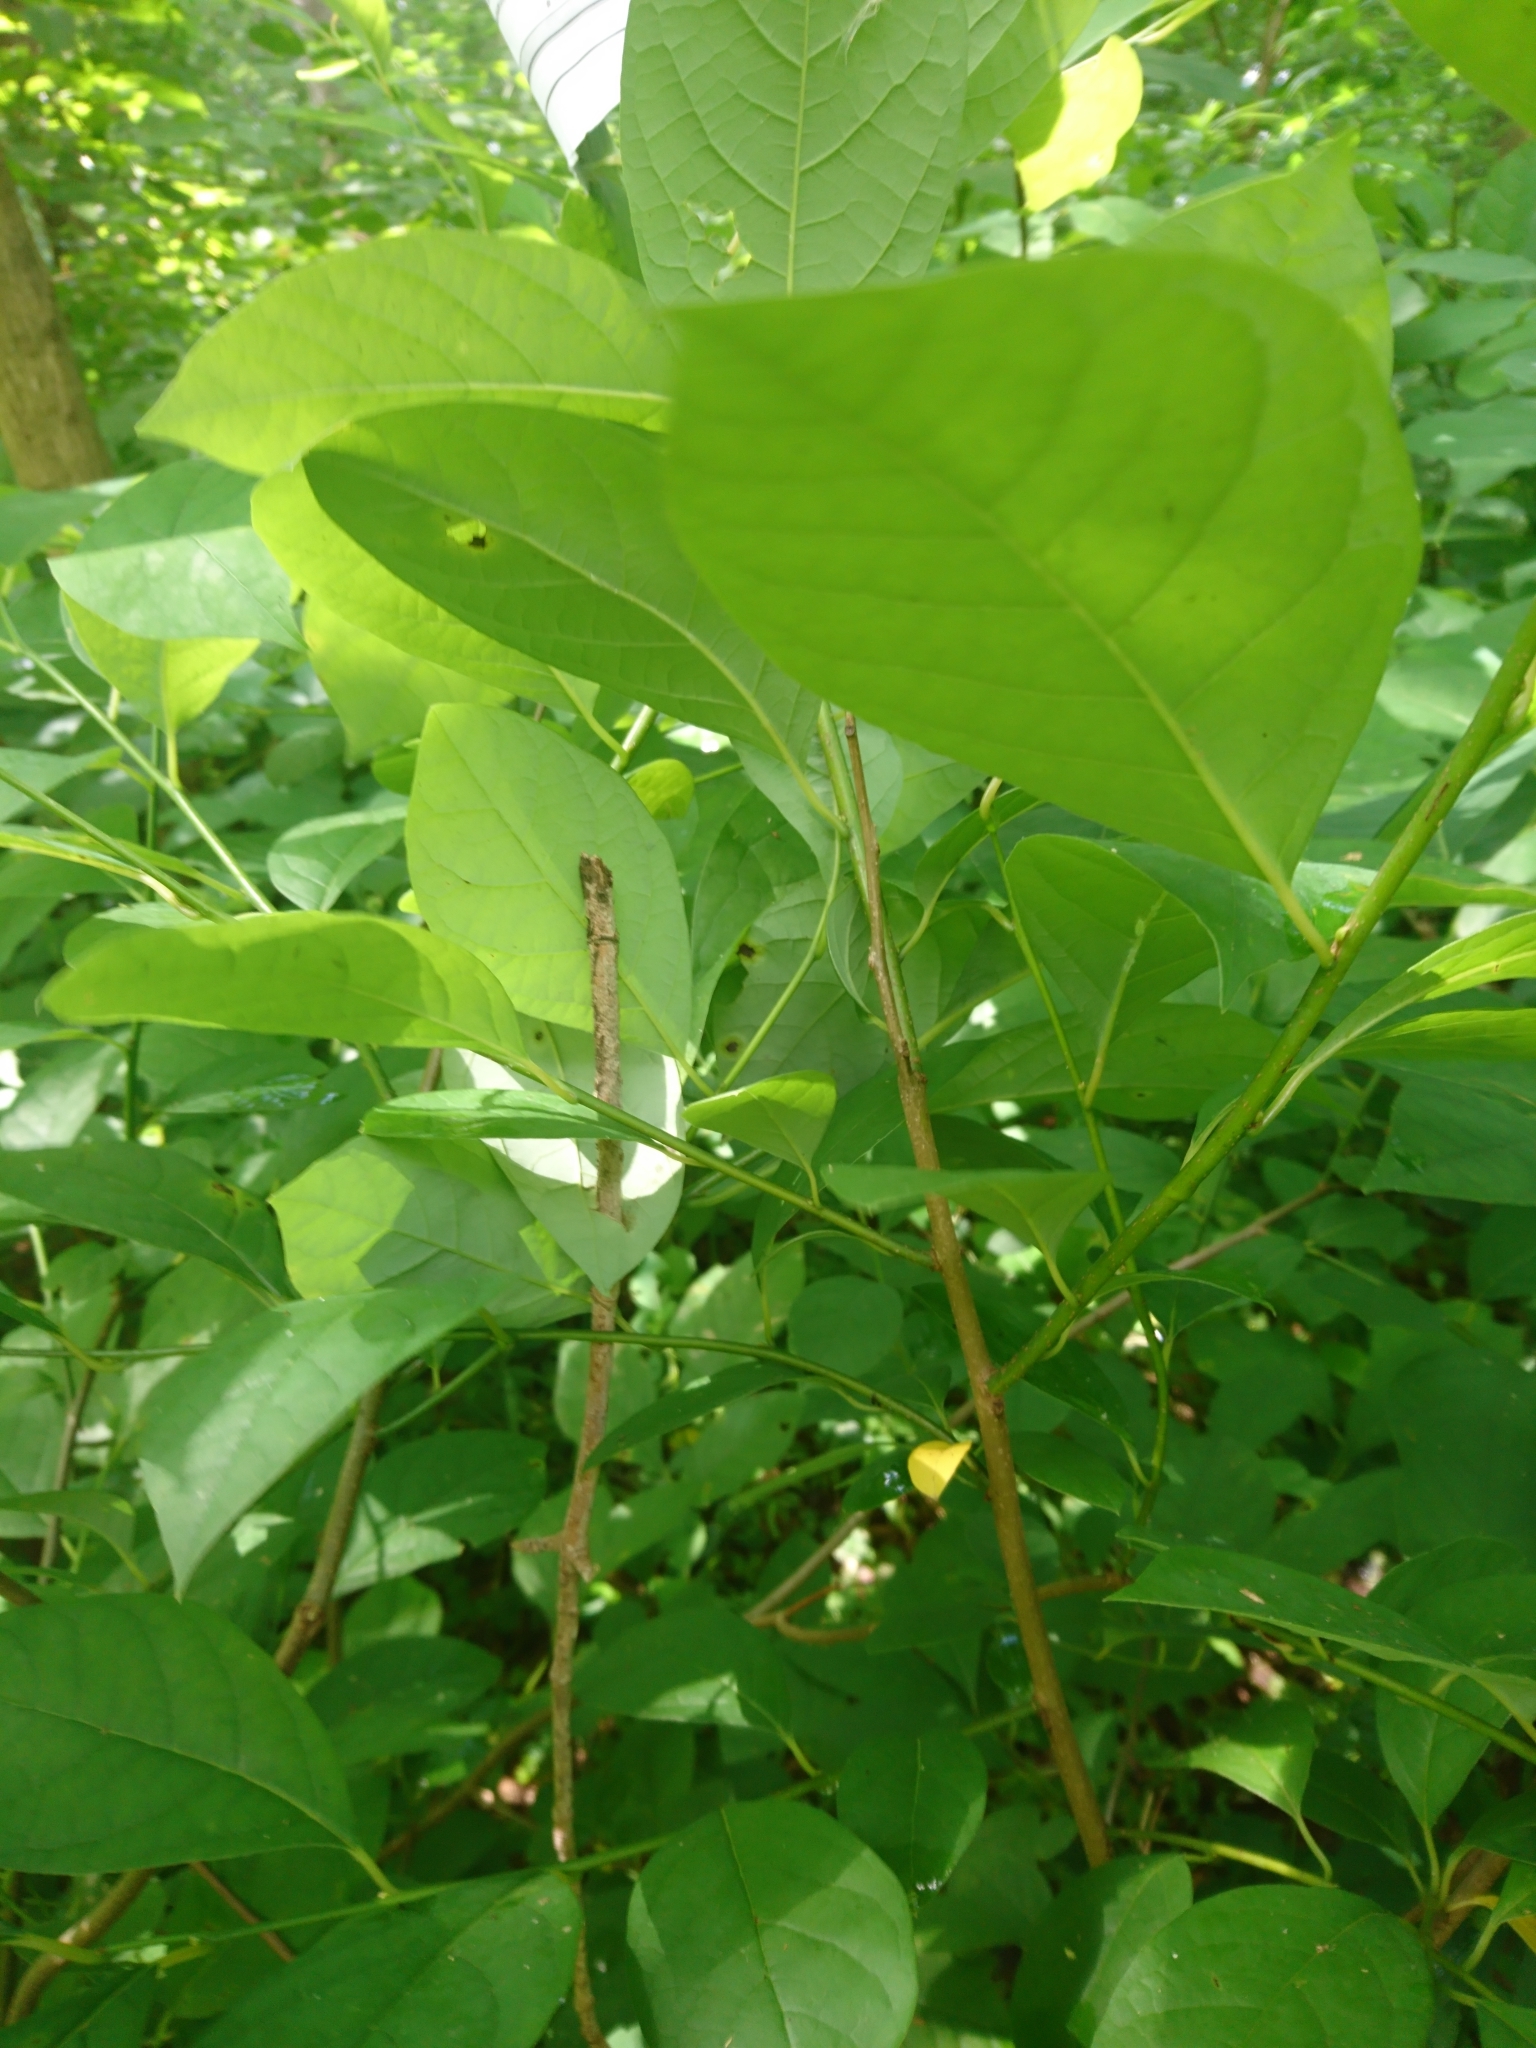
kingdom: Plantae
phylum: Tracheophyta
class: Magnoliopsida
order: Laurales
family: Lauraceae
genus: Lindera
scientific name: Lindera benzoin
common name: Spicebush
